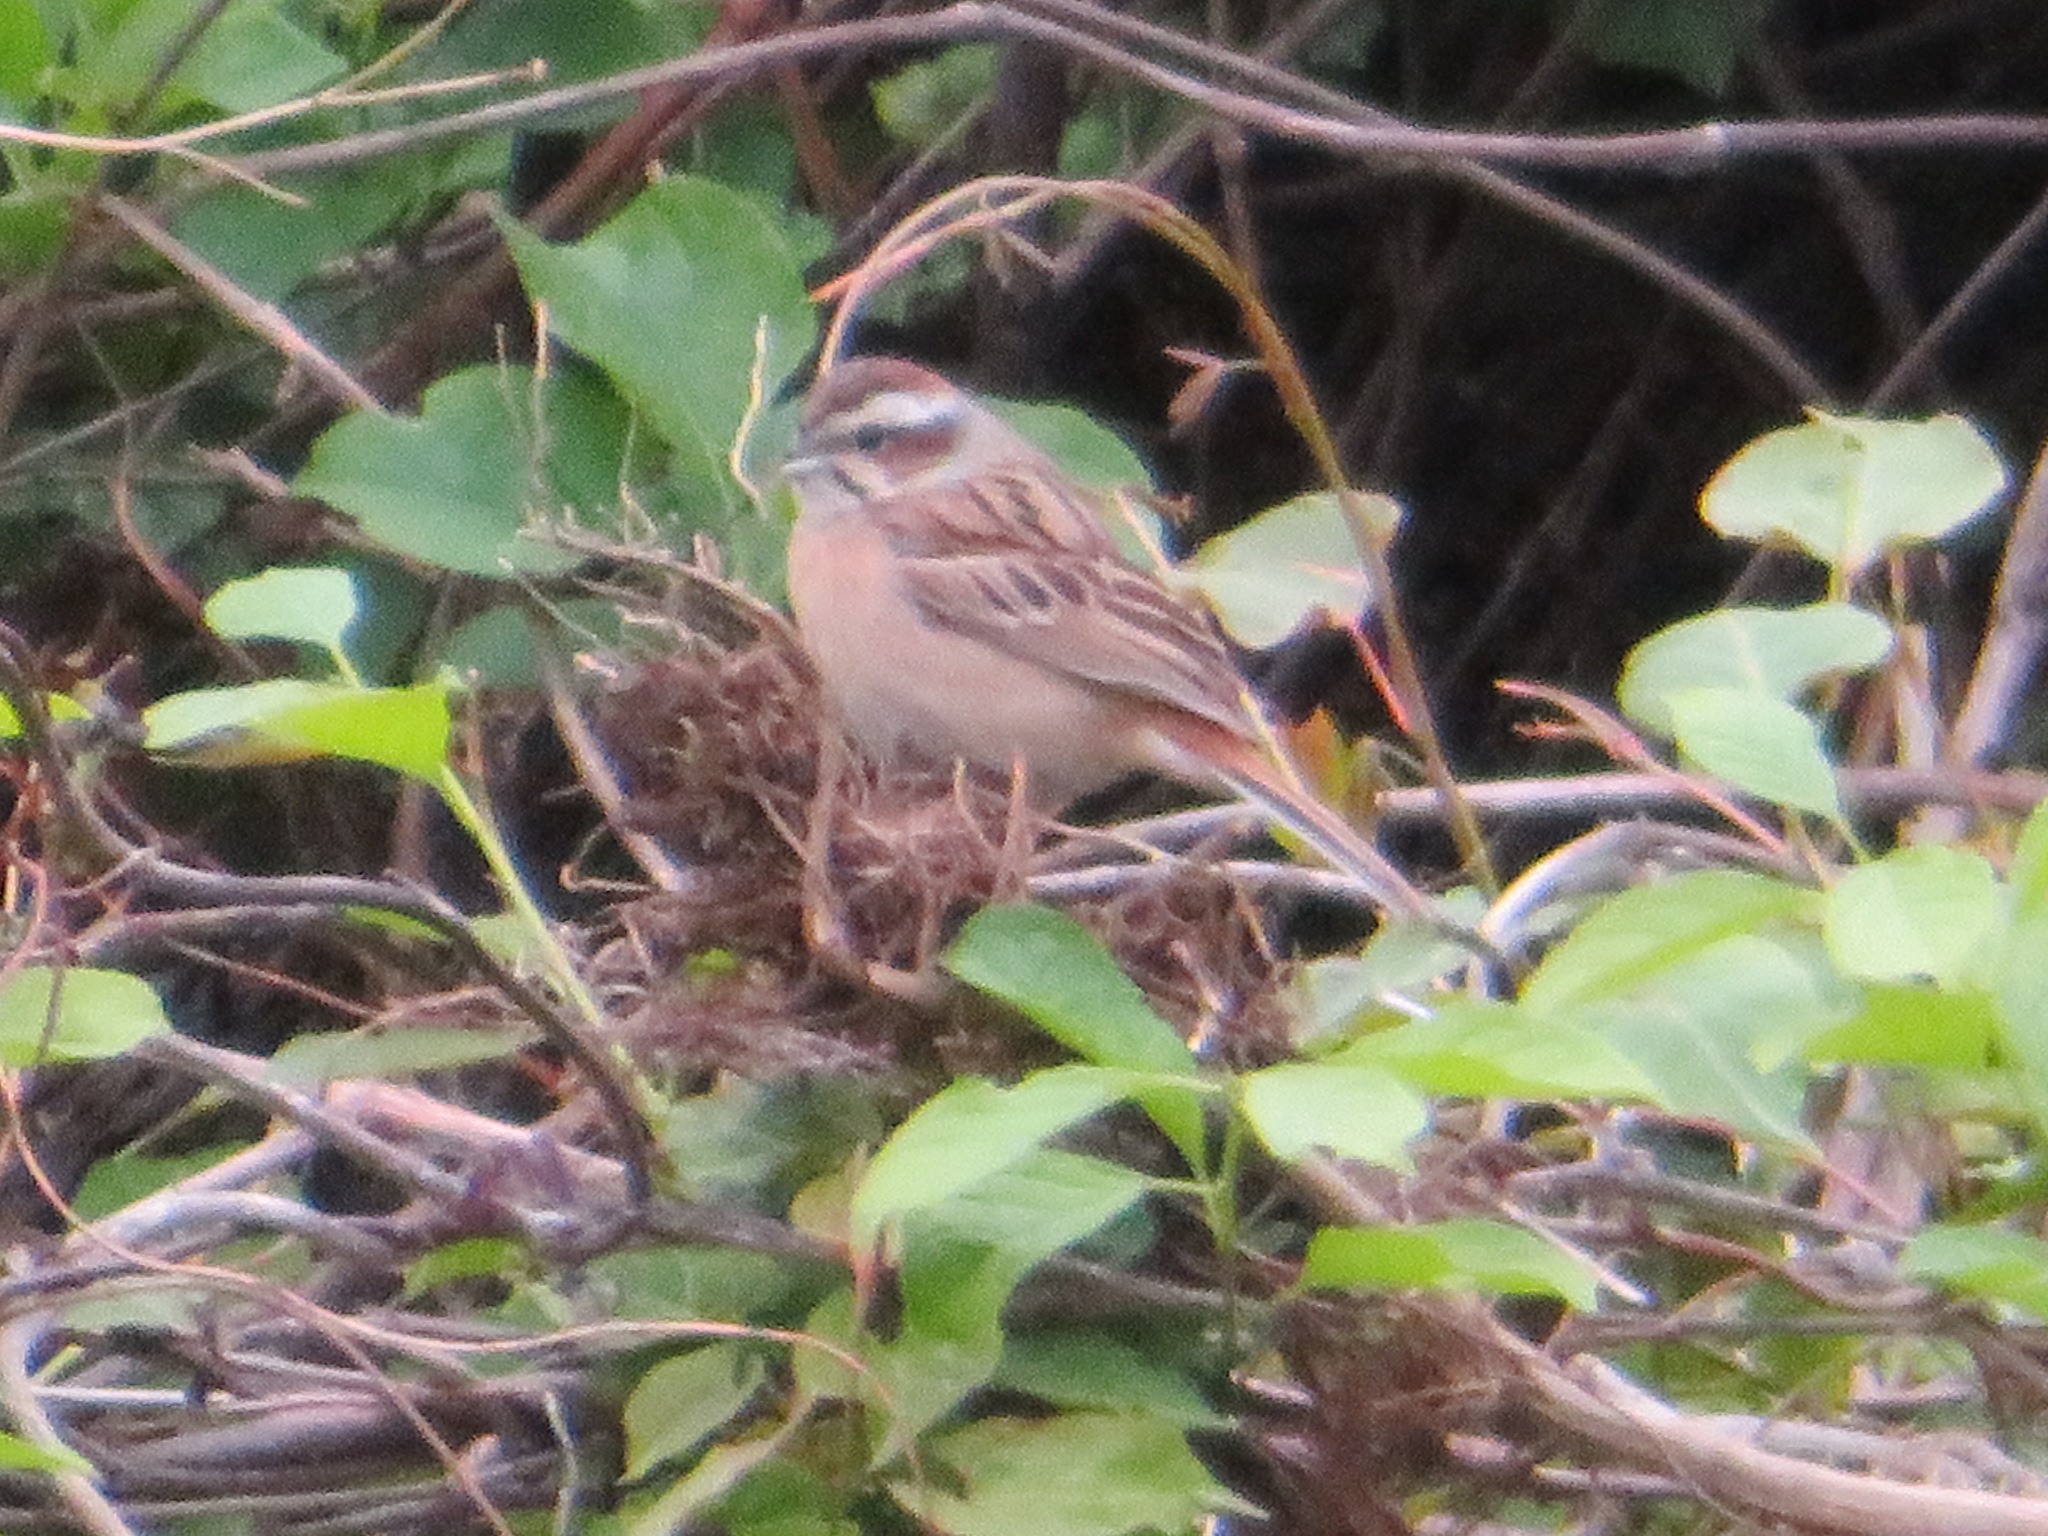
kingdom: Animalia
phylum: Chordata
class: Aves
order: Passeriformes
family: Emberizidae
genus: Emberiza
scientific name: Emberiza cioides
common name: Meadow bunting
